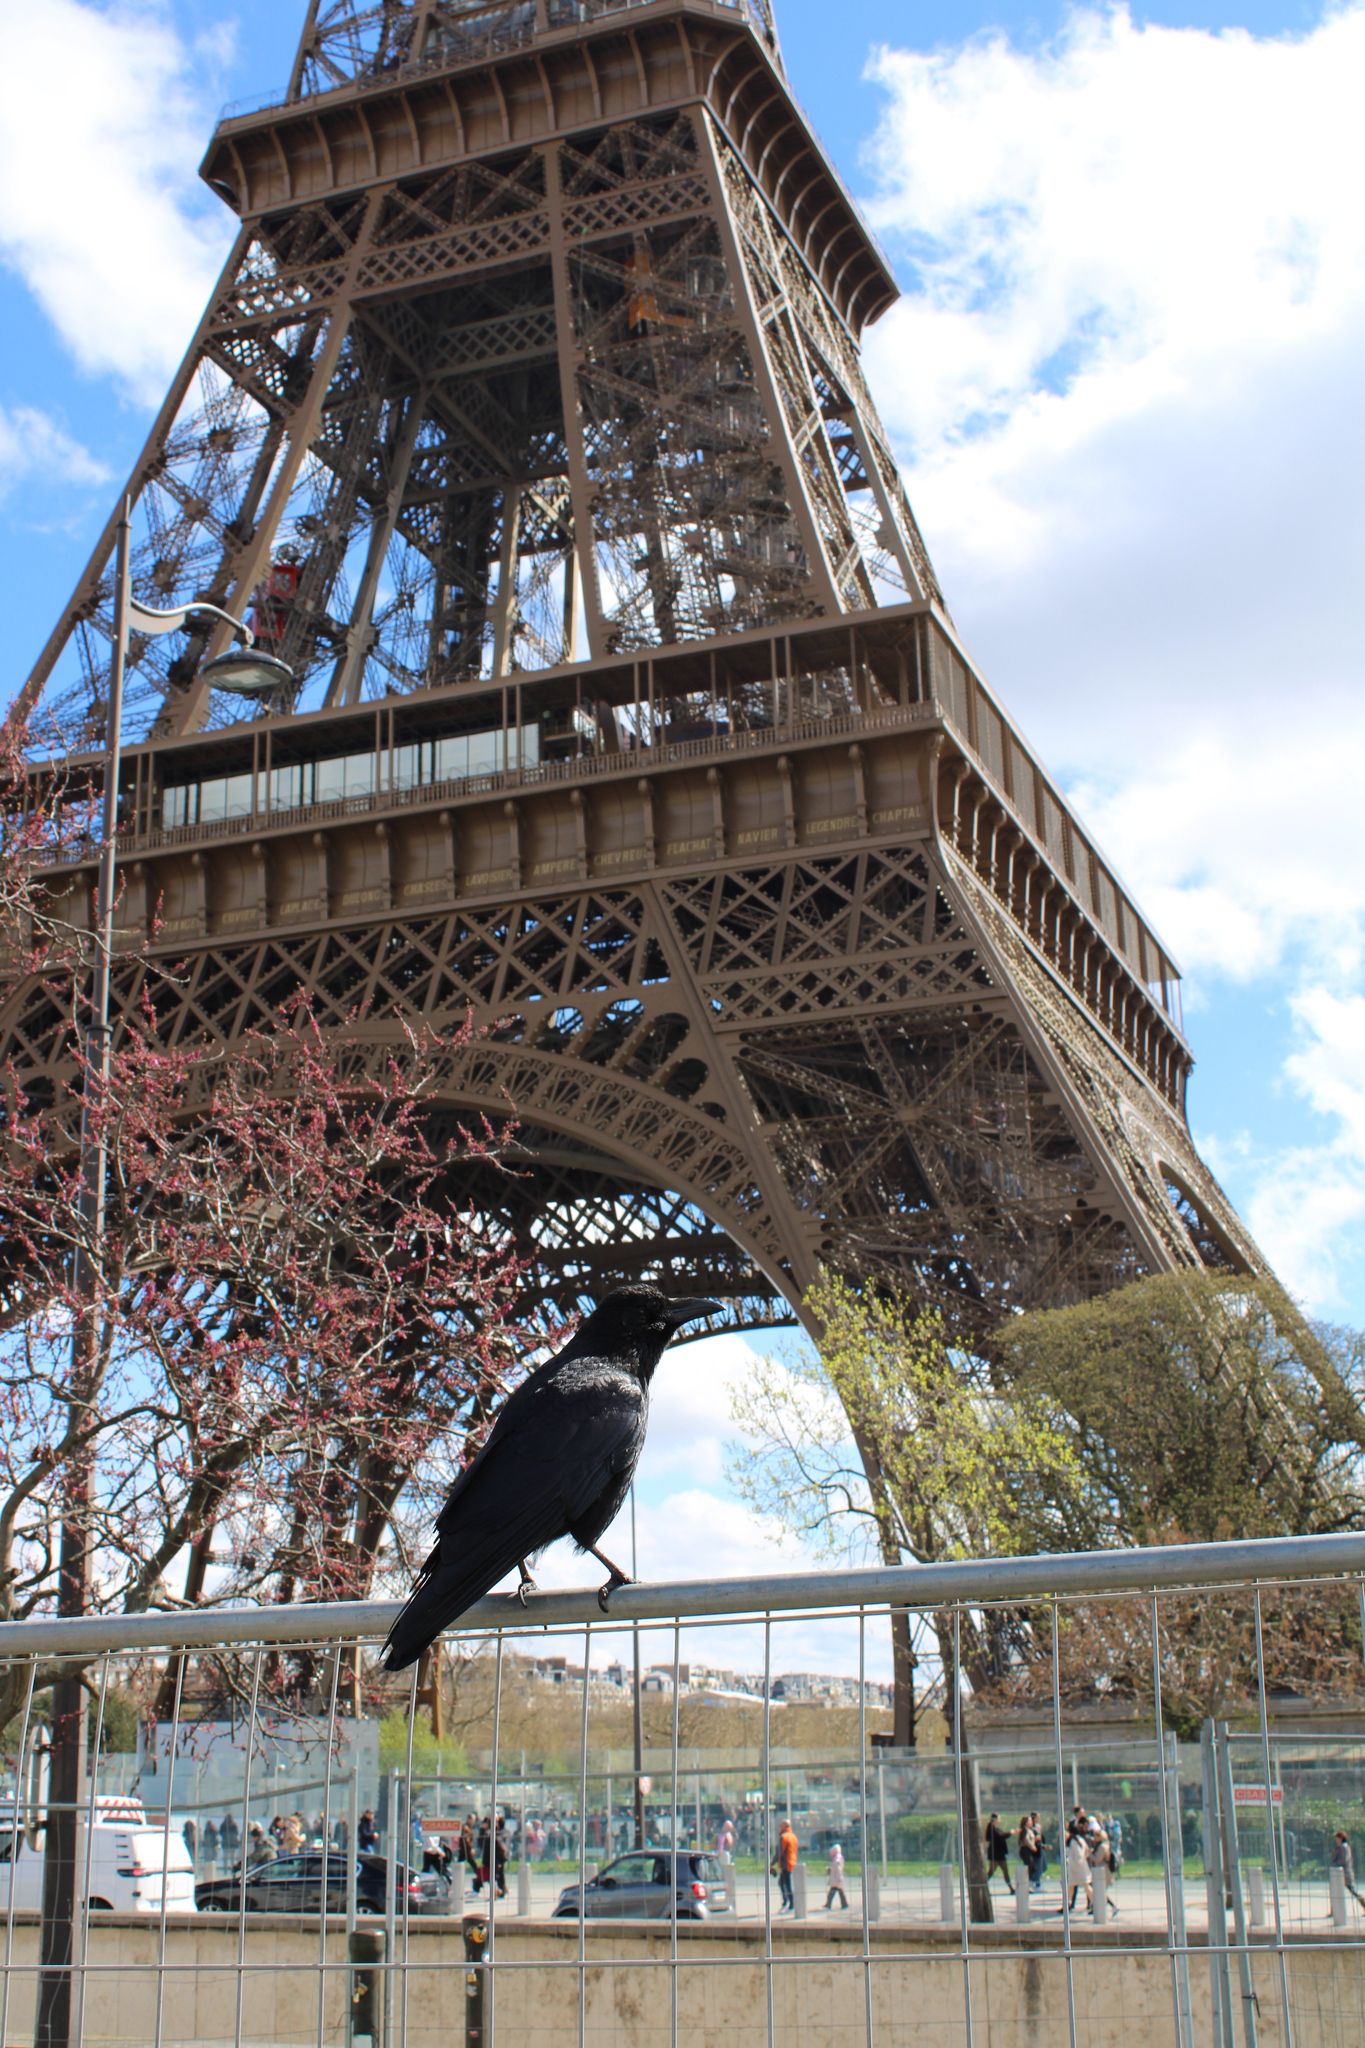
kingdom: Animalia
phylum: Chordata
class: Aves
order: Passeriformes
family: Corvidae
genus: Corvus
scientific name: Corvus corone
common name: Carrion crow
